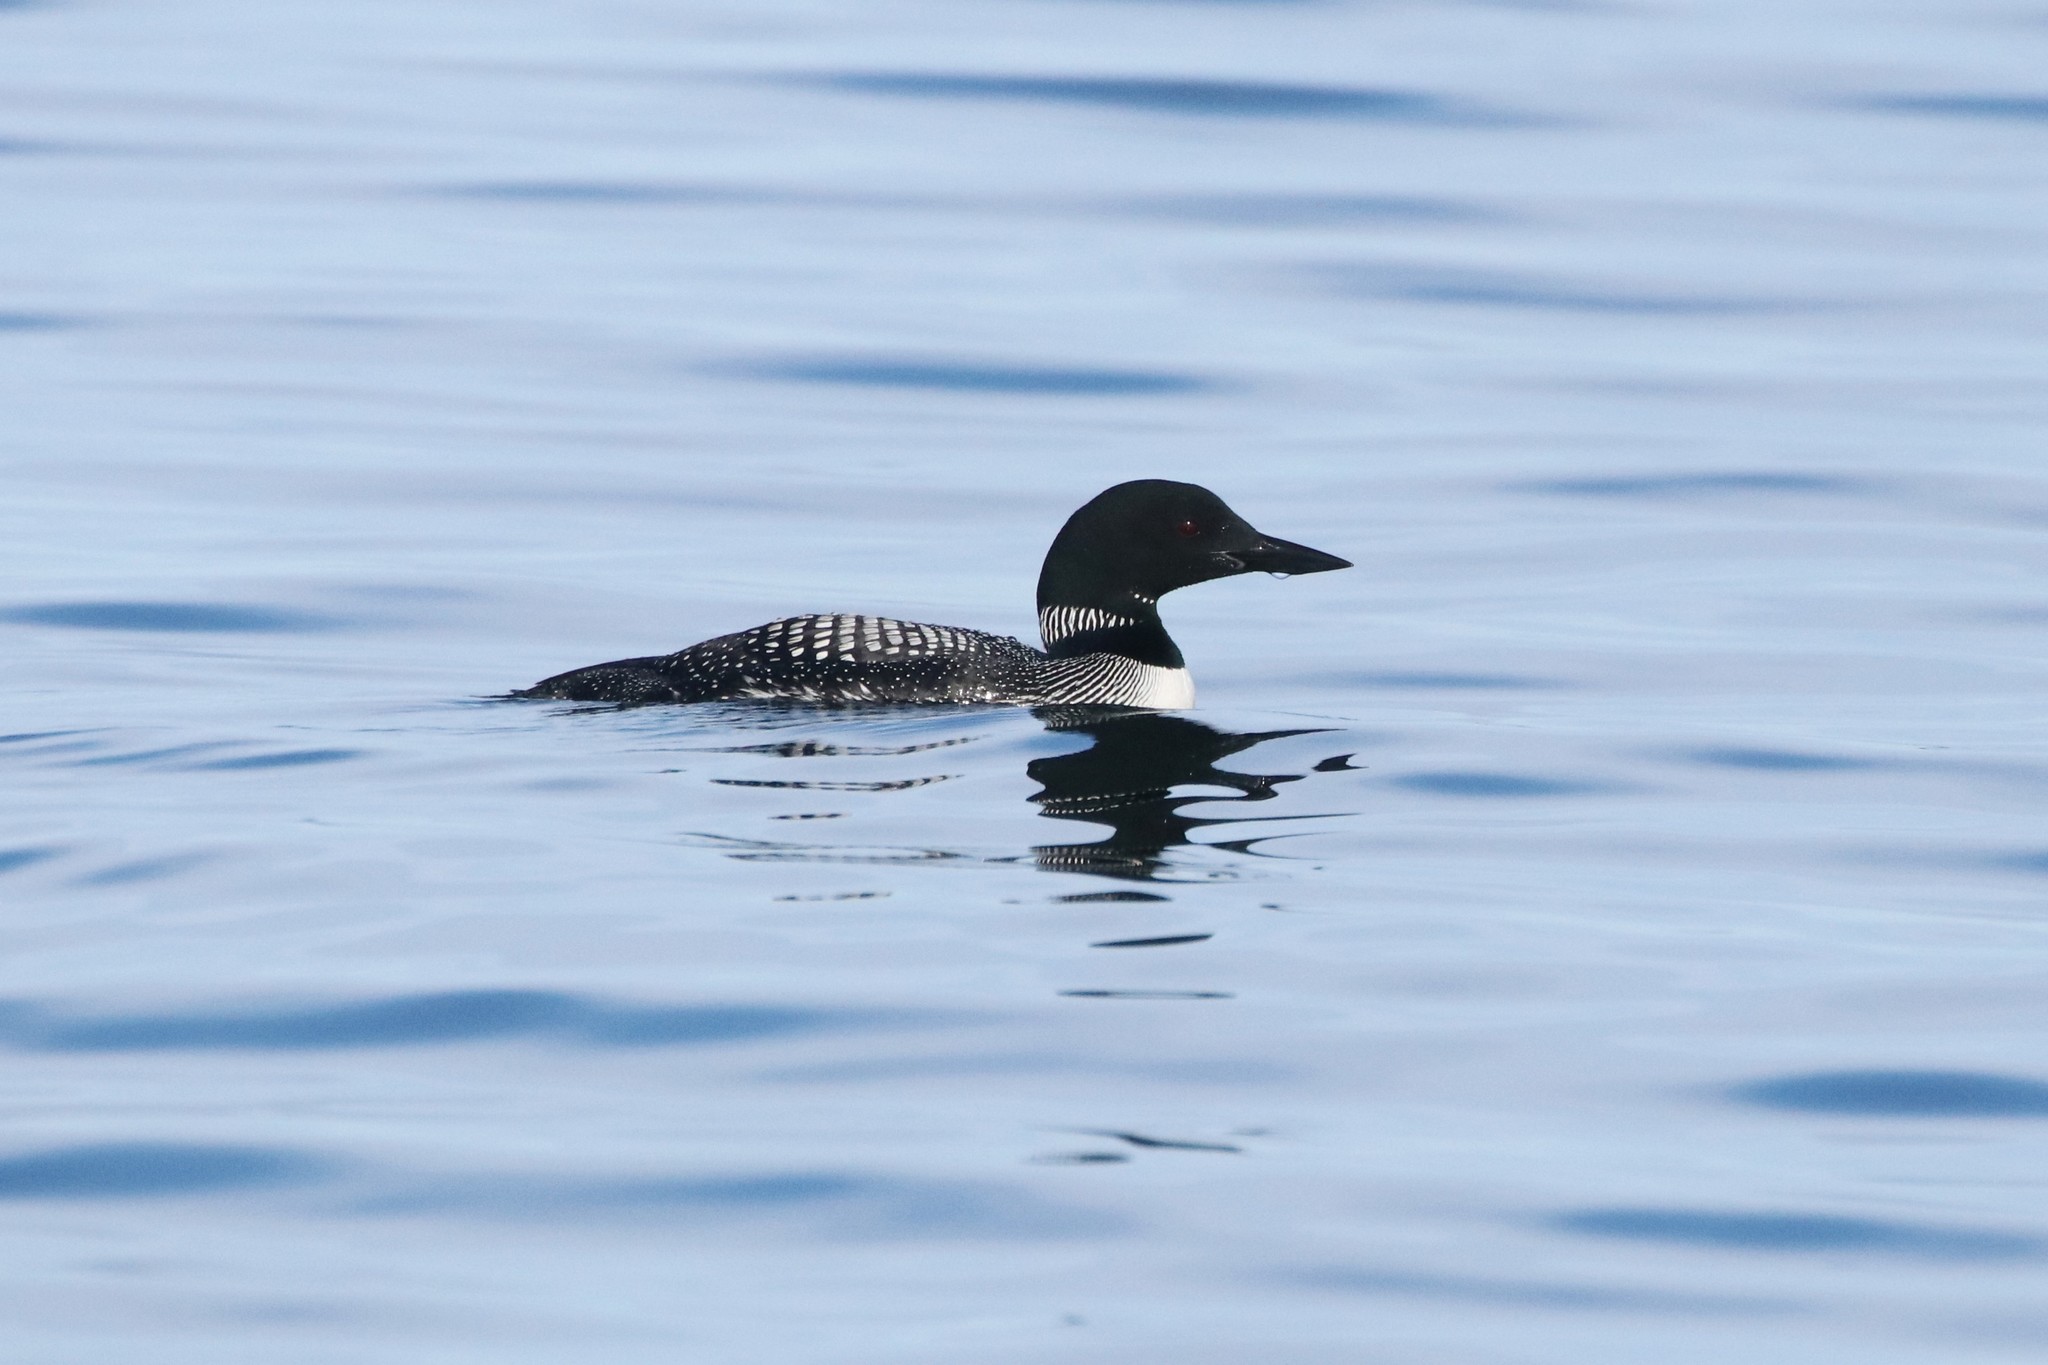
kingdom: Animalia
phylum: Chordata
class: Aves
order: Gaviiformes
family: Gaviidae
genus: Gavia
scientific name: Gavia immer
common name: Common loon
